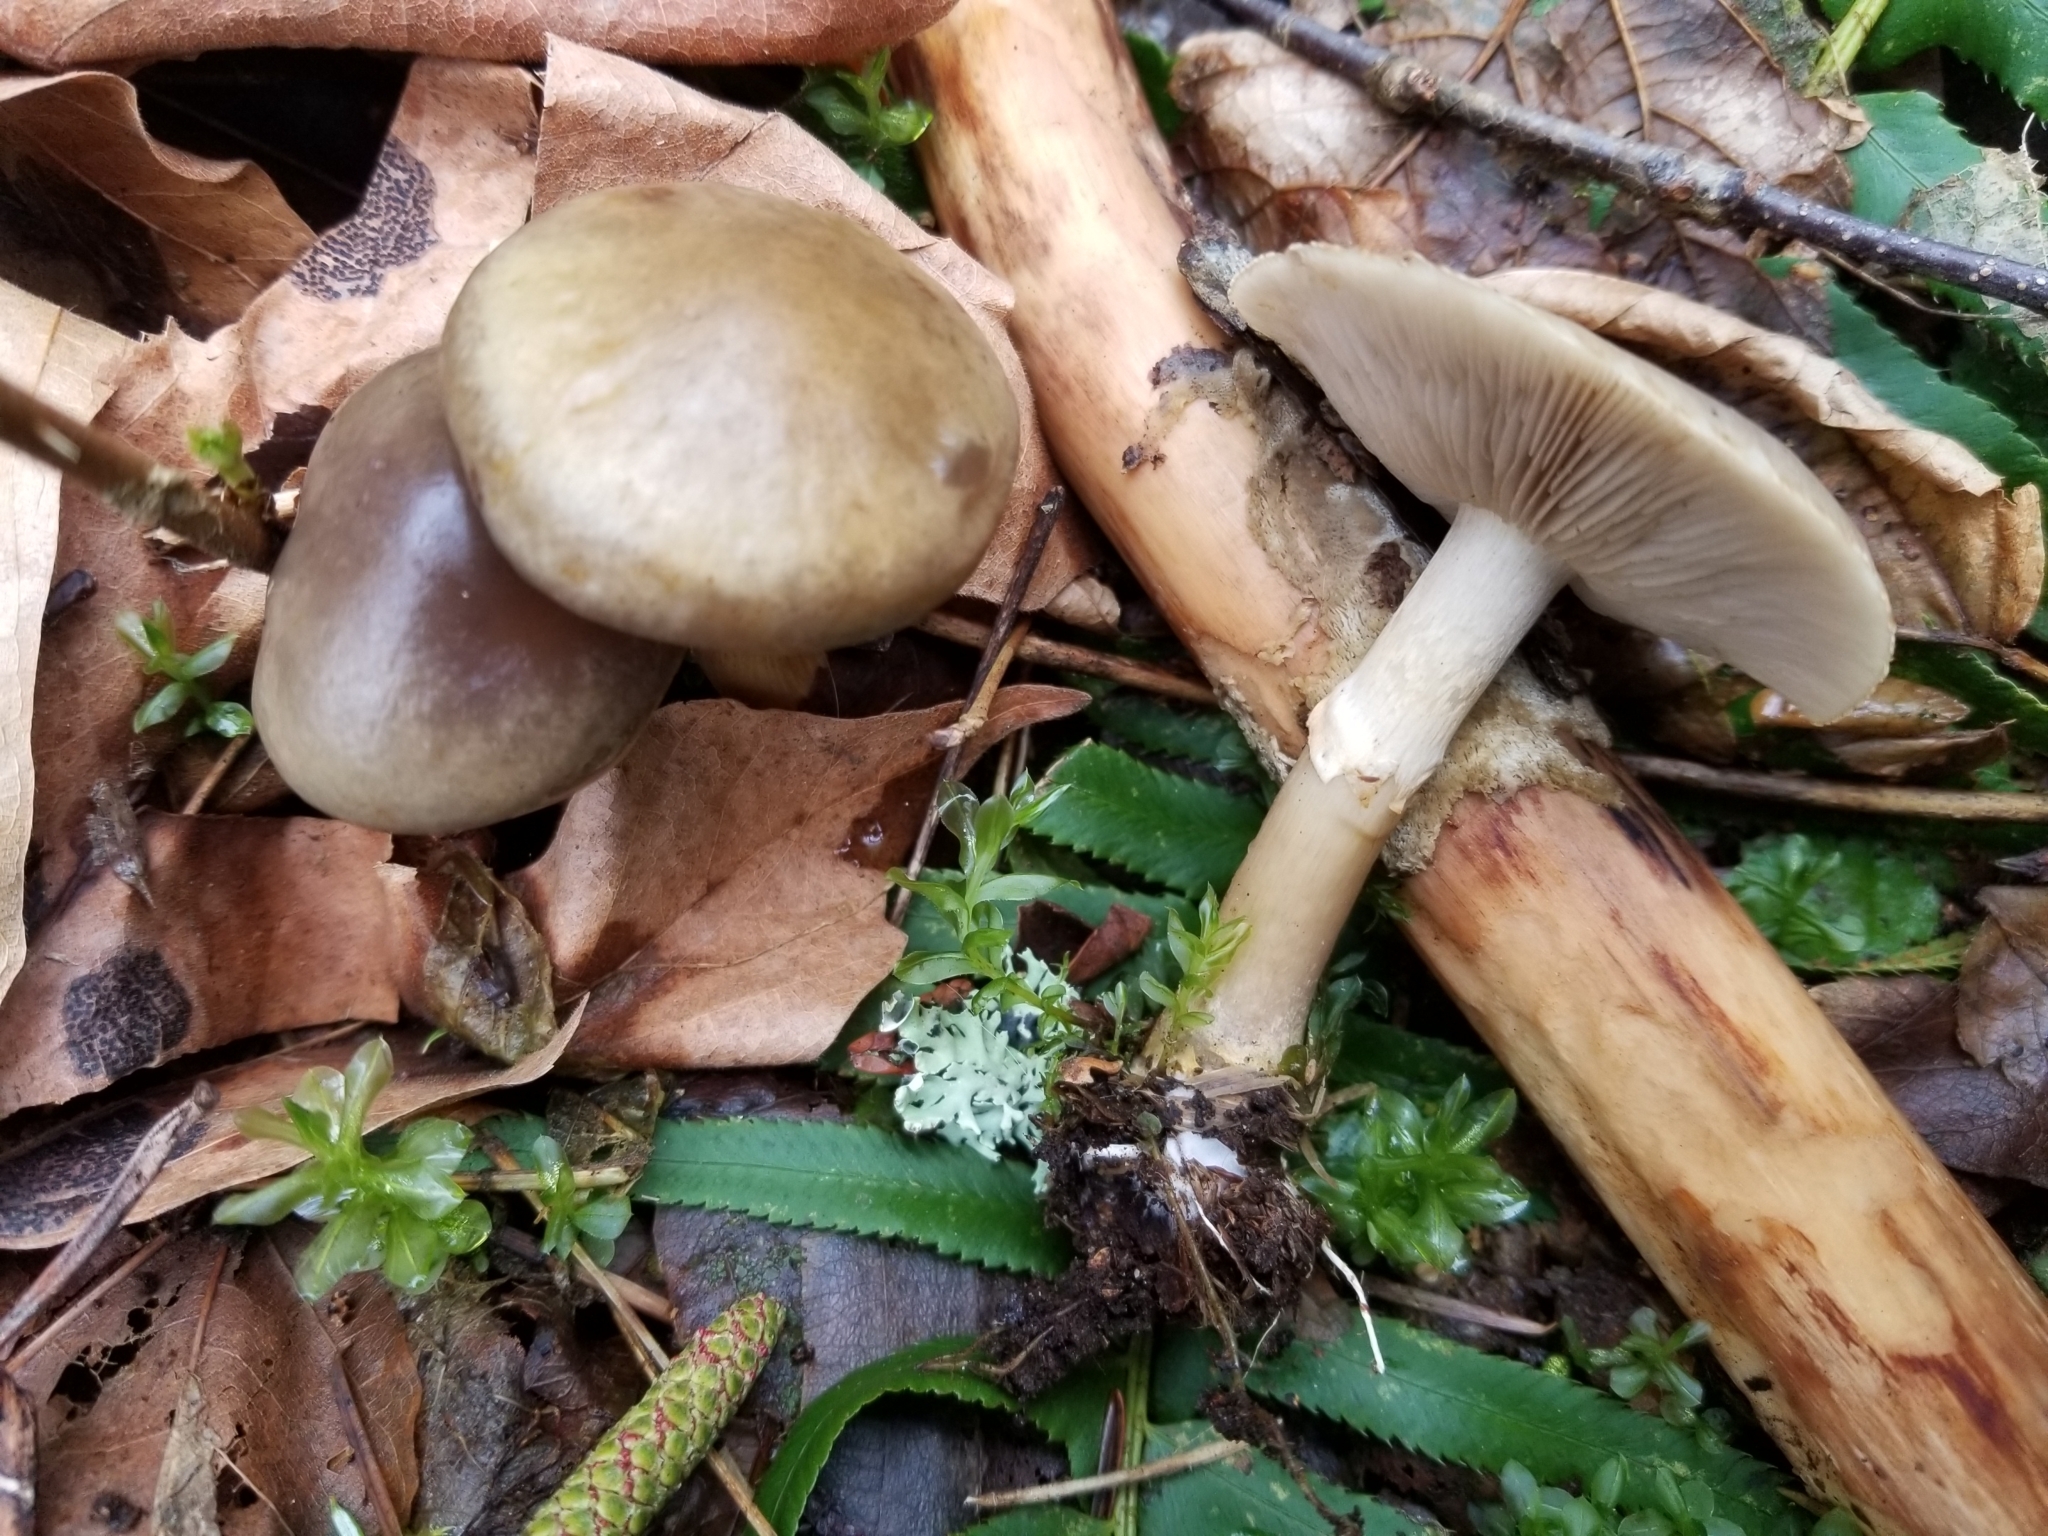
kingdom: Fungi
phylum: Basidiomycota
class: Agaricomycetes
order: Agaricales
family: Strophariaceae
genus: Agrocybe
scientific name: Agrocybe praecox
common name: Spring fieldcap
